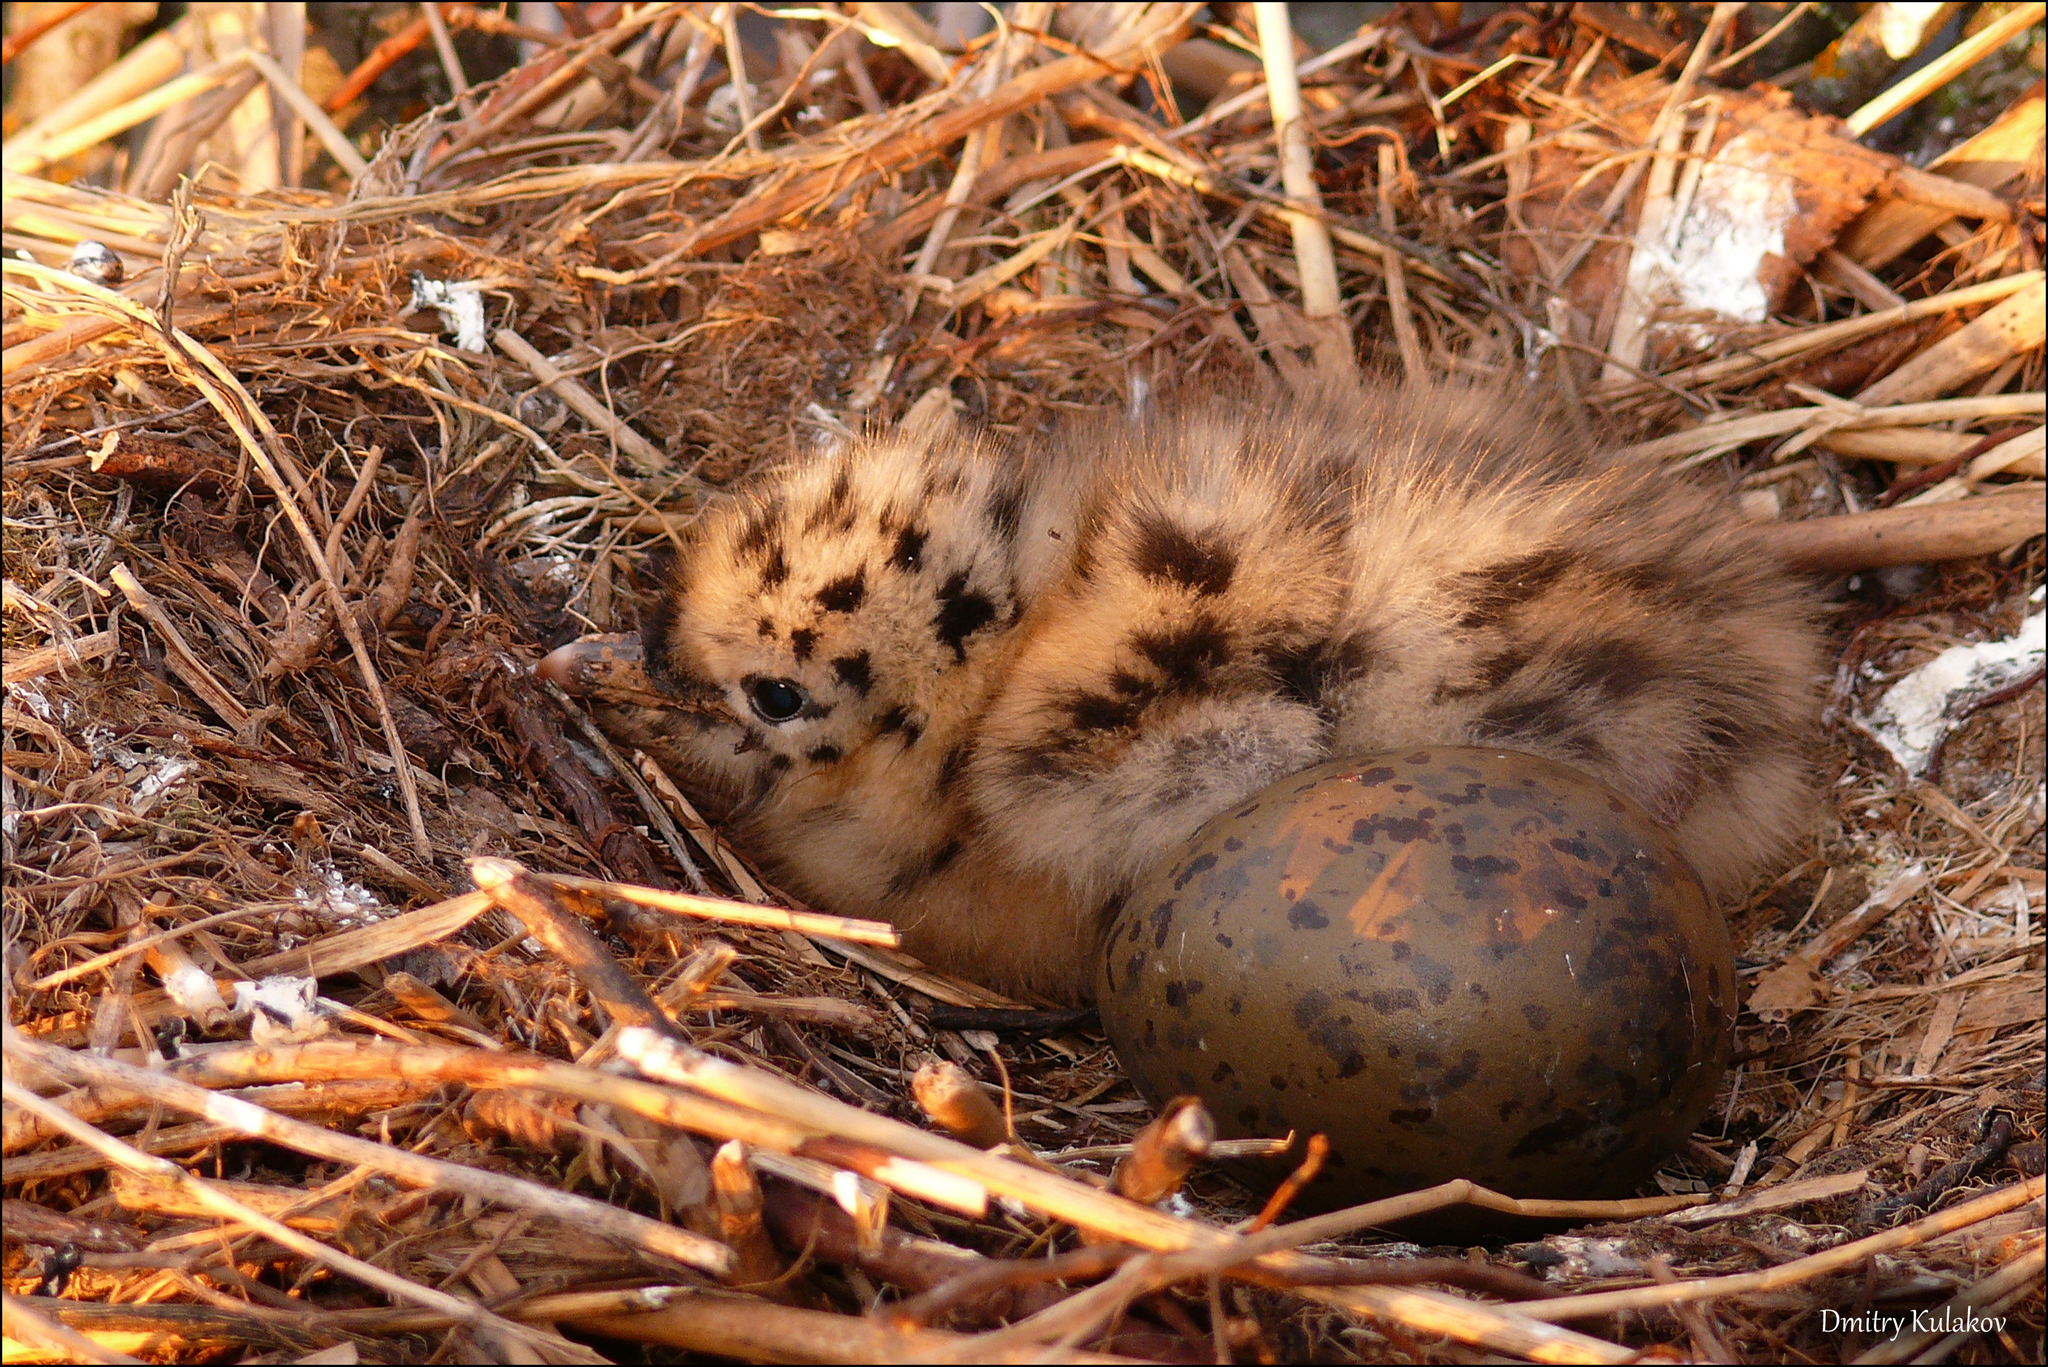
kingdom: Animalia
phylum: Chordata
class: Aves
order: Charadriiformes
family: Laridae
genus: Larus
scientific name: Larus canus
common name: Mew gull
